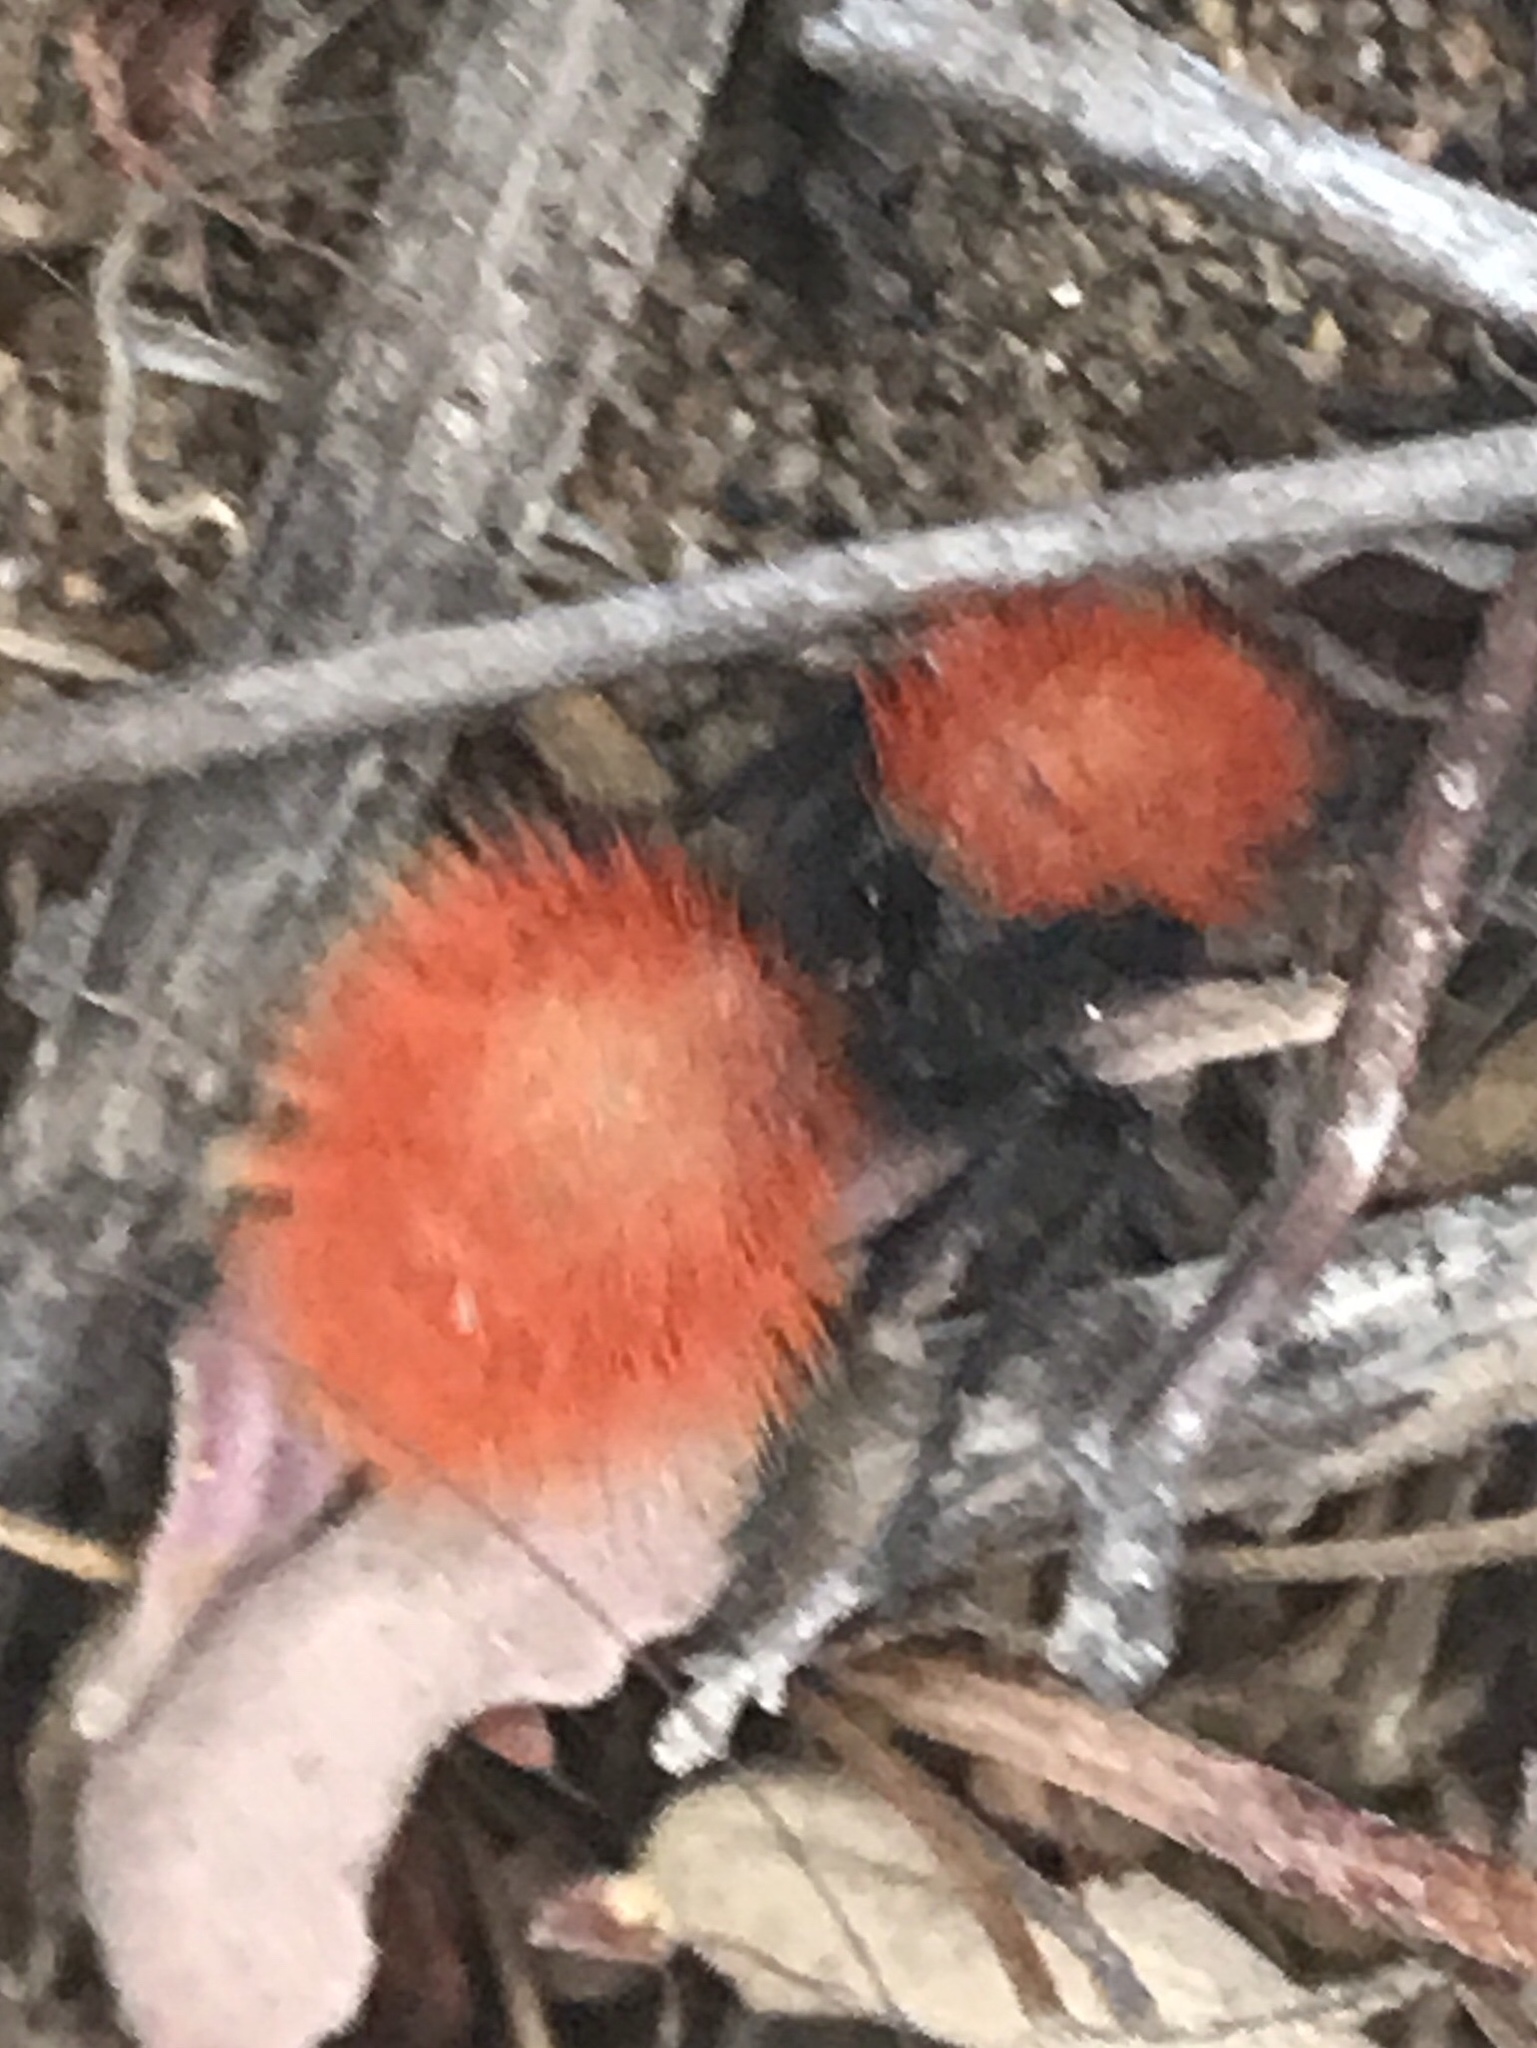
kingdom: Animalia
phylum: Arthropoda
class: Insecta
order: Hymenoptera
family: Mutillidae
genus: Dasymutilla
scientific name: Dasymutilla
